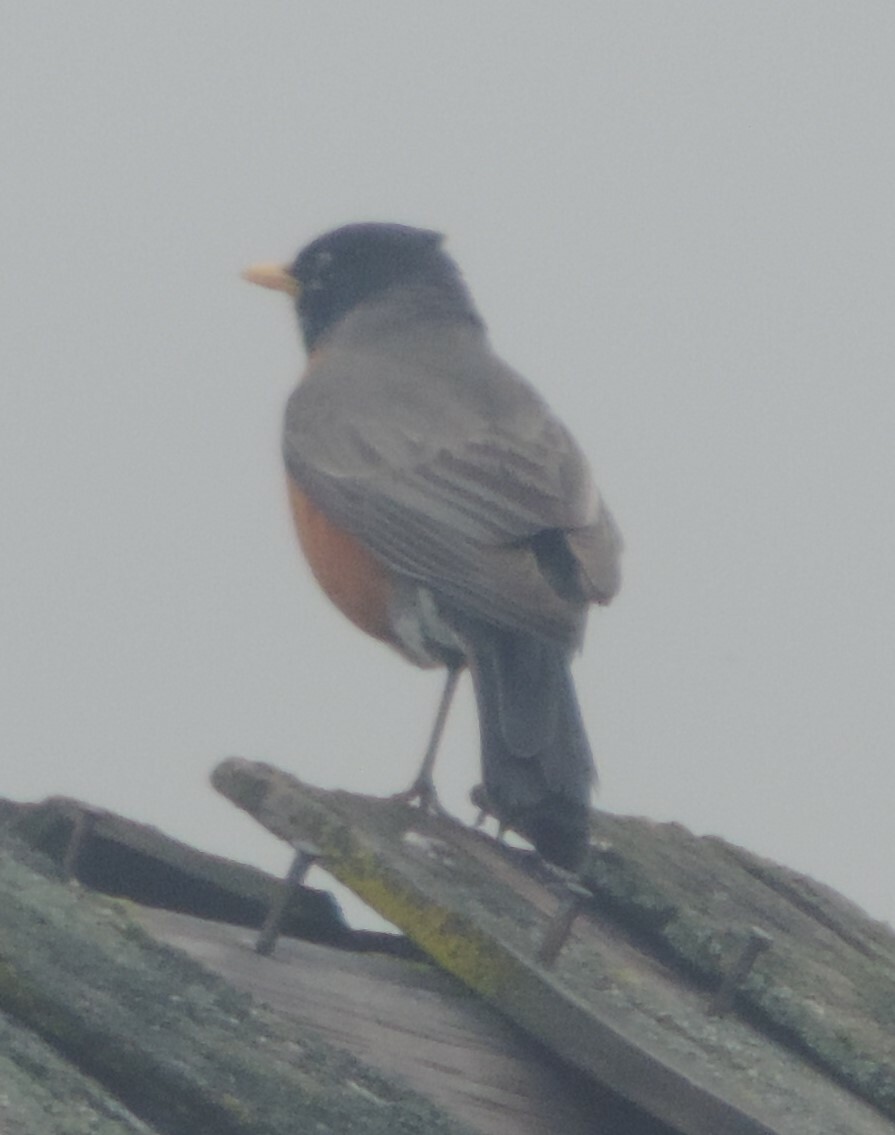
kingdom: Animalia
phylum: Chordata
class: Aves
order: Passeriformes
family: Turdidae
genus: Turdus
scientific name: Turdus migratorius
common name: American robin
